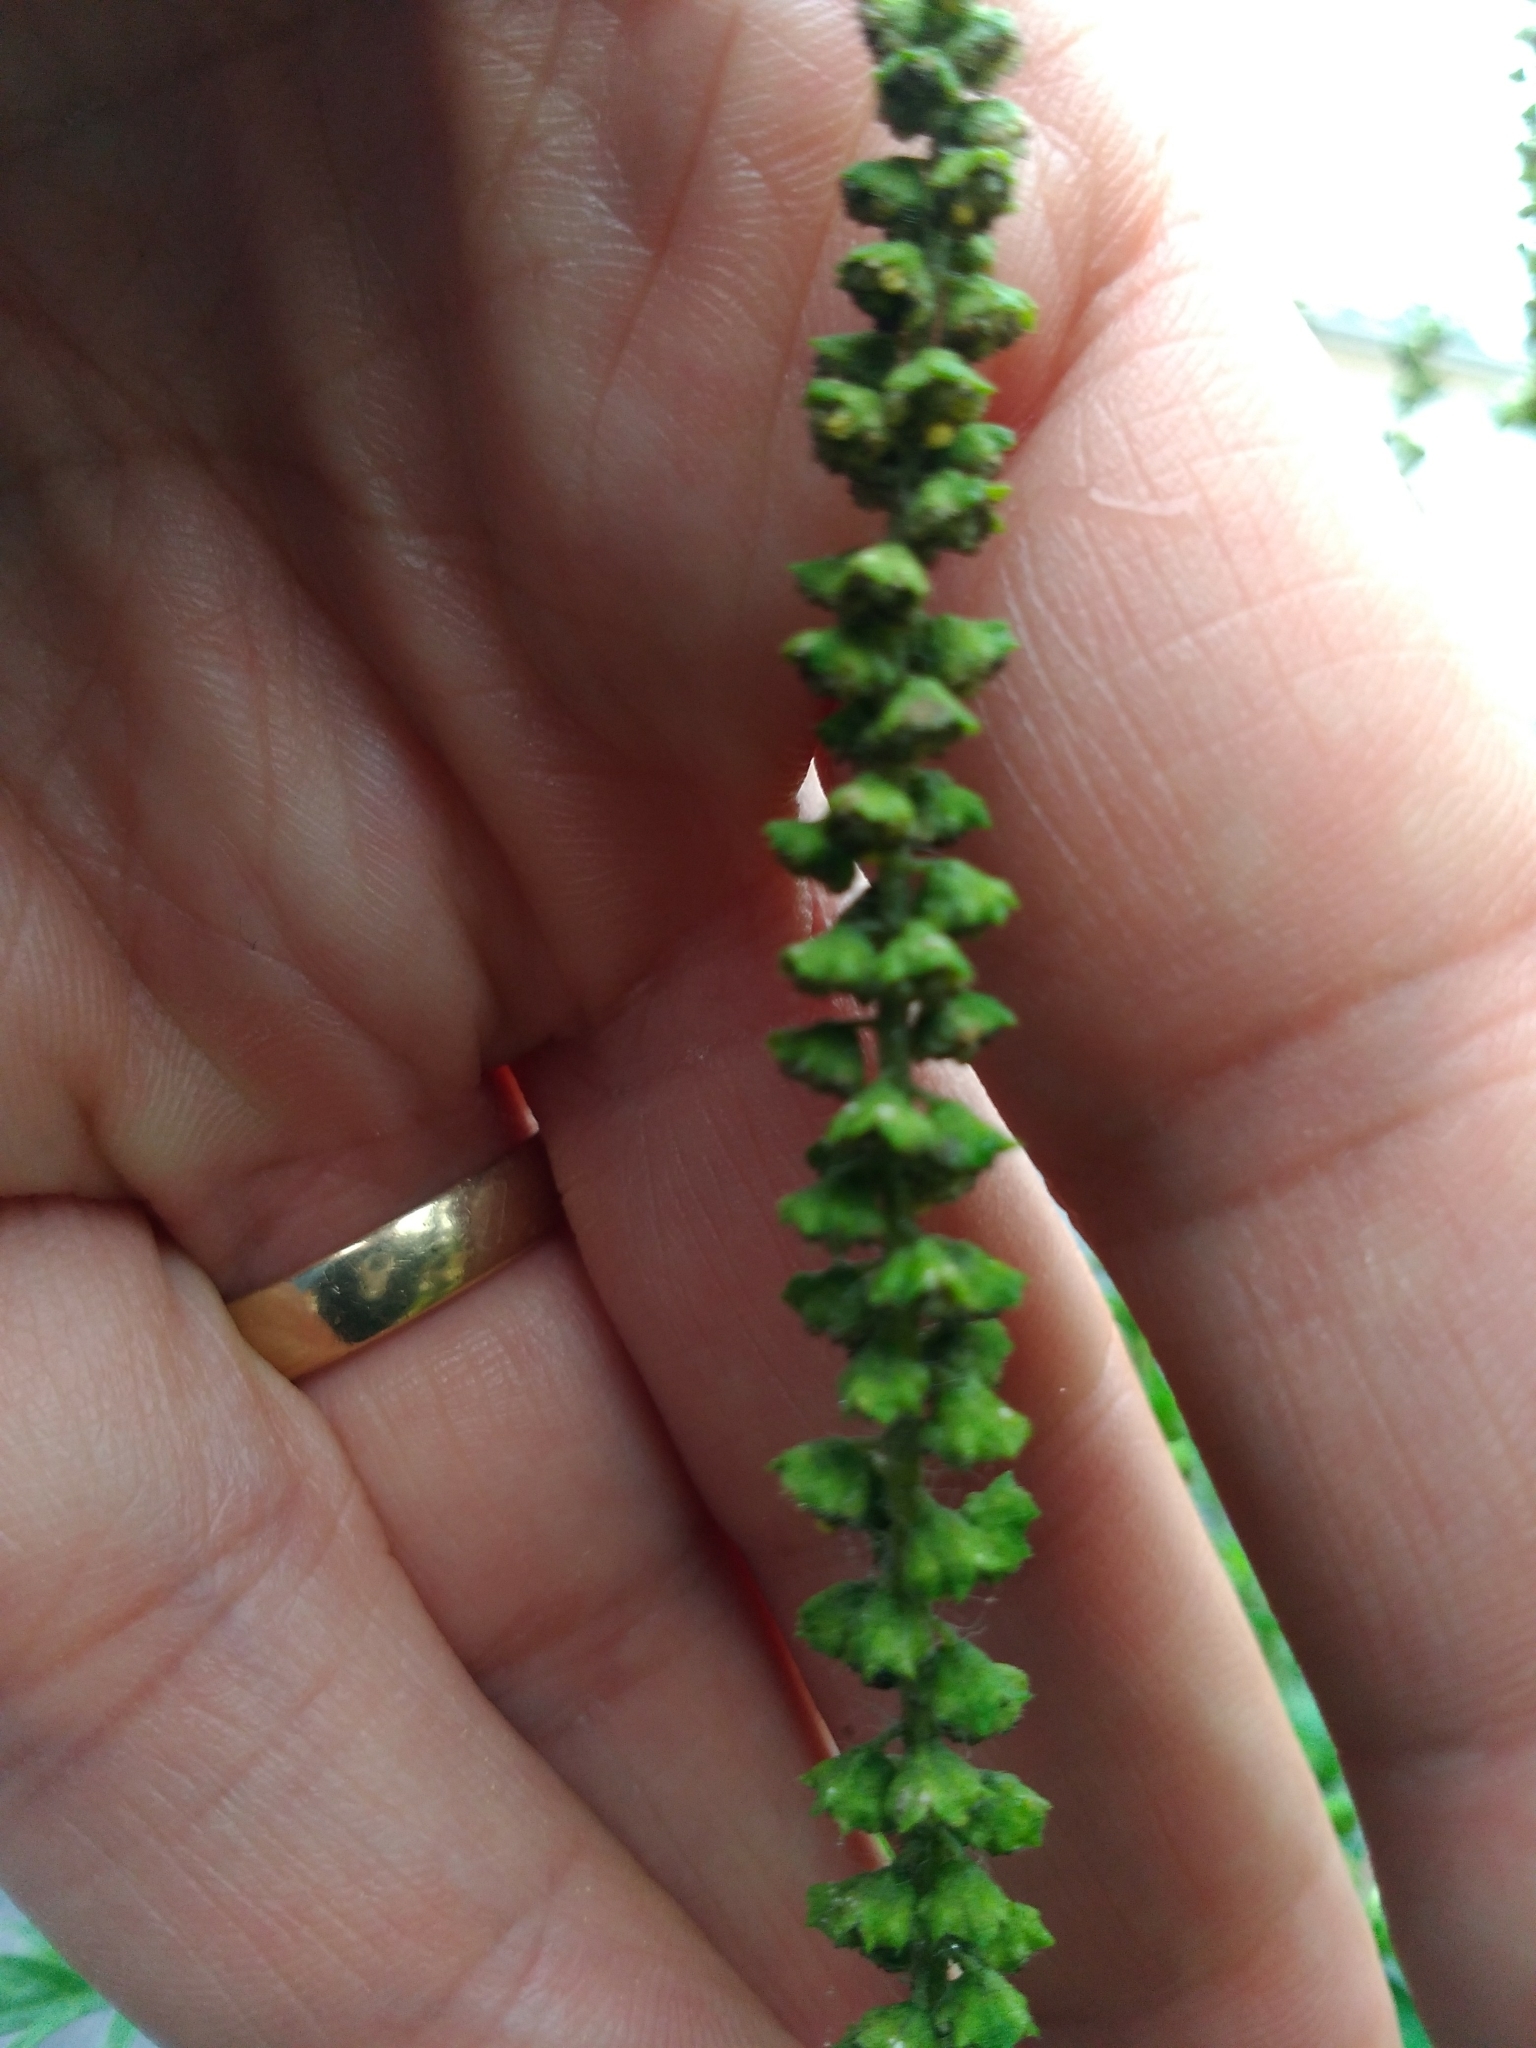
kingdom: Plantae
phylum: Tracheophyta
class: Magnoliopsida
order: Asterales
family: Asteraceae
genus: Ambrosia
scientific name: Ambrosia artemisiifolia
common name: Annual ragweed
